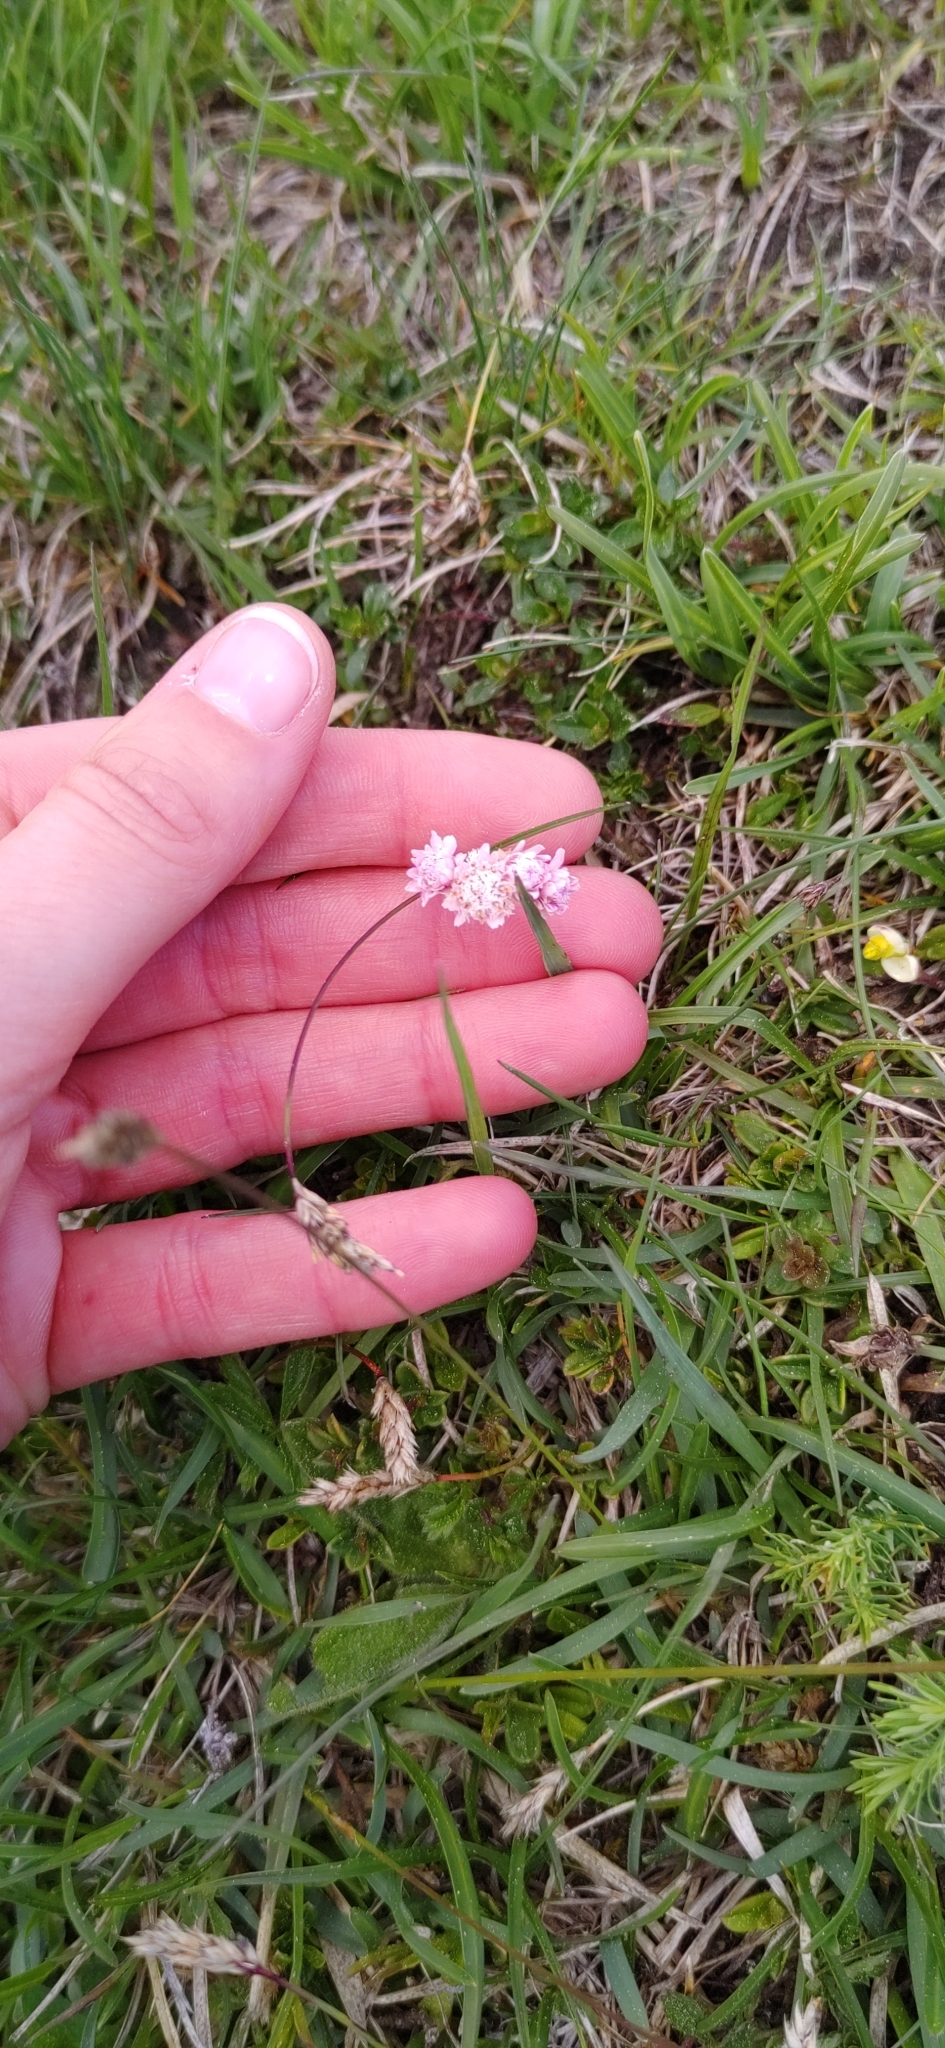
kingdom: Plantae
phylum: Tracheophyta
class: Magnoliopsida
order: Asterales
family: Asteraceae
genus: Antennaria
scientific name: Antennaria dioica
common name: Mountain everlasting
